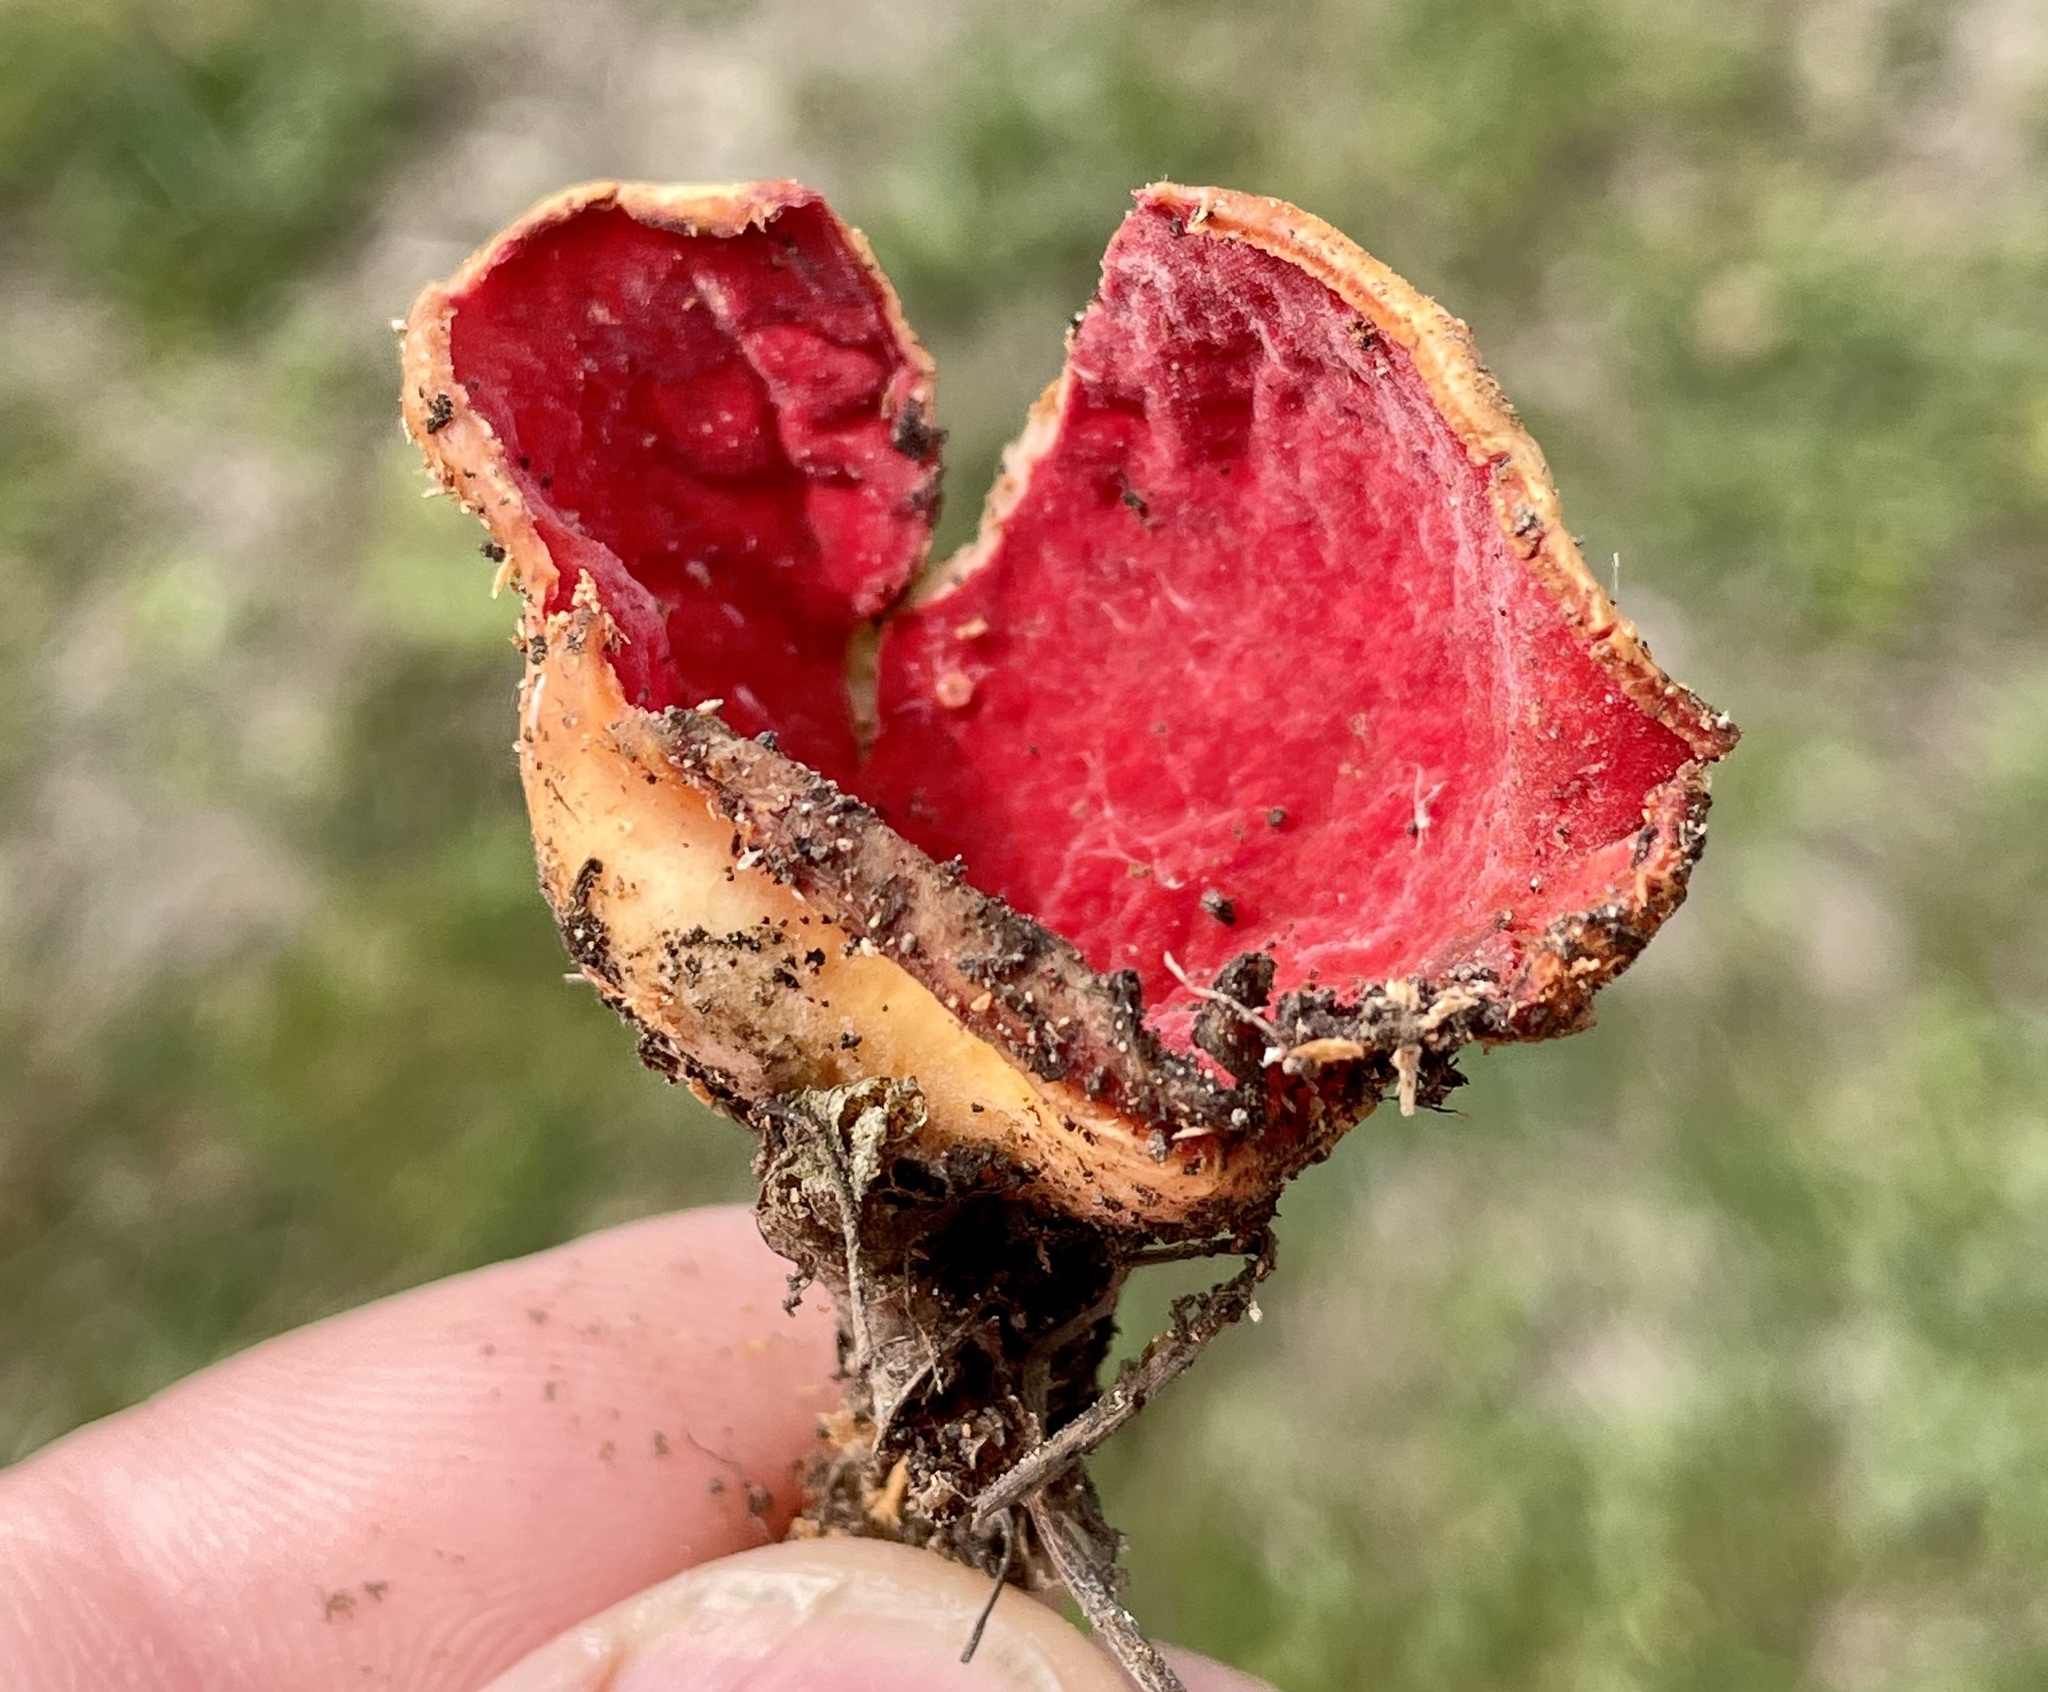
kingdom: Fungi
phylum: Ascomycota
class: Pezizomycetes
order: Pezizales
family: Sarcoscyphaceae
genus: Sarcoscypha
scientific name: Sarcoscypha
